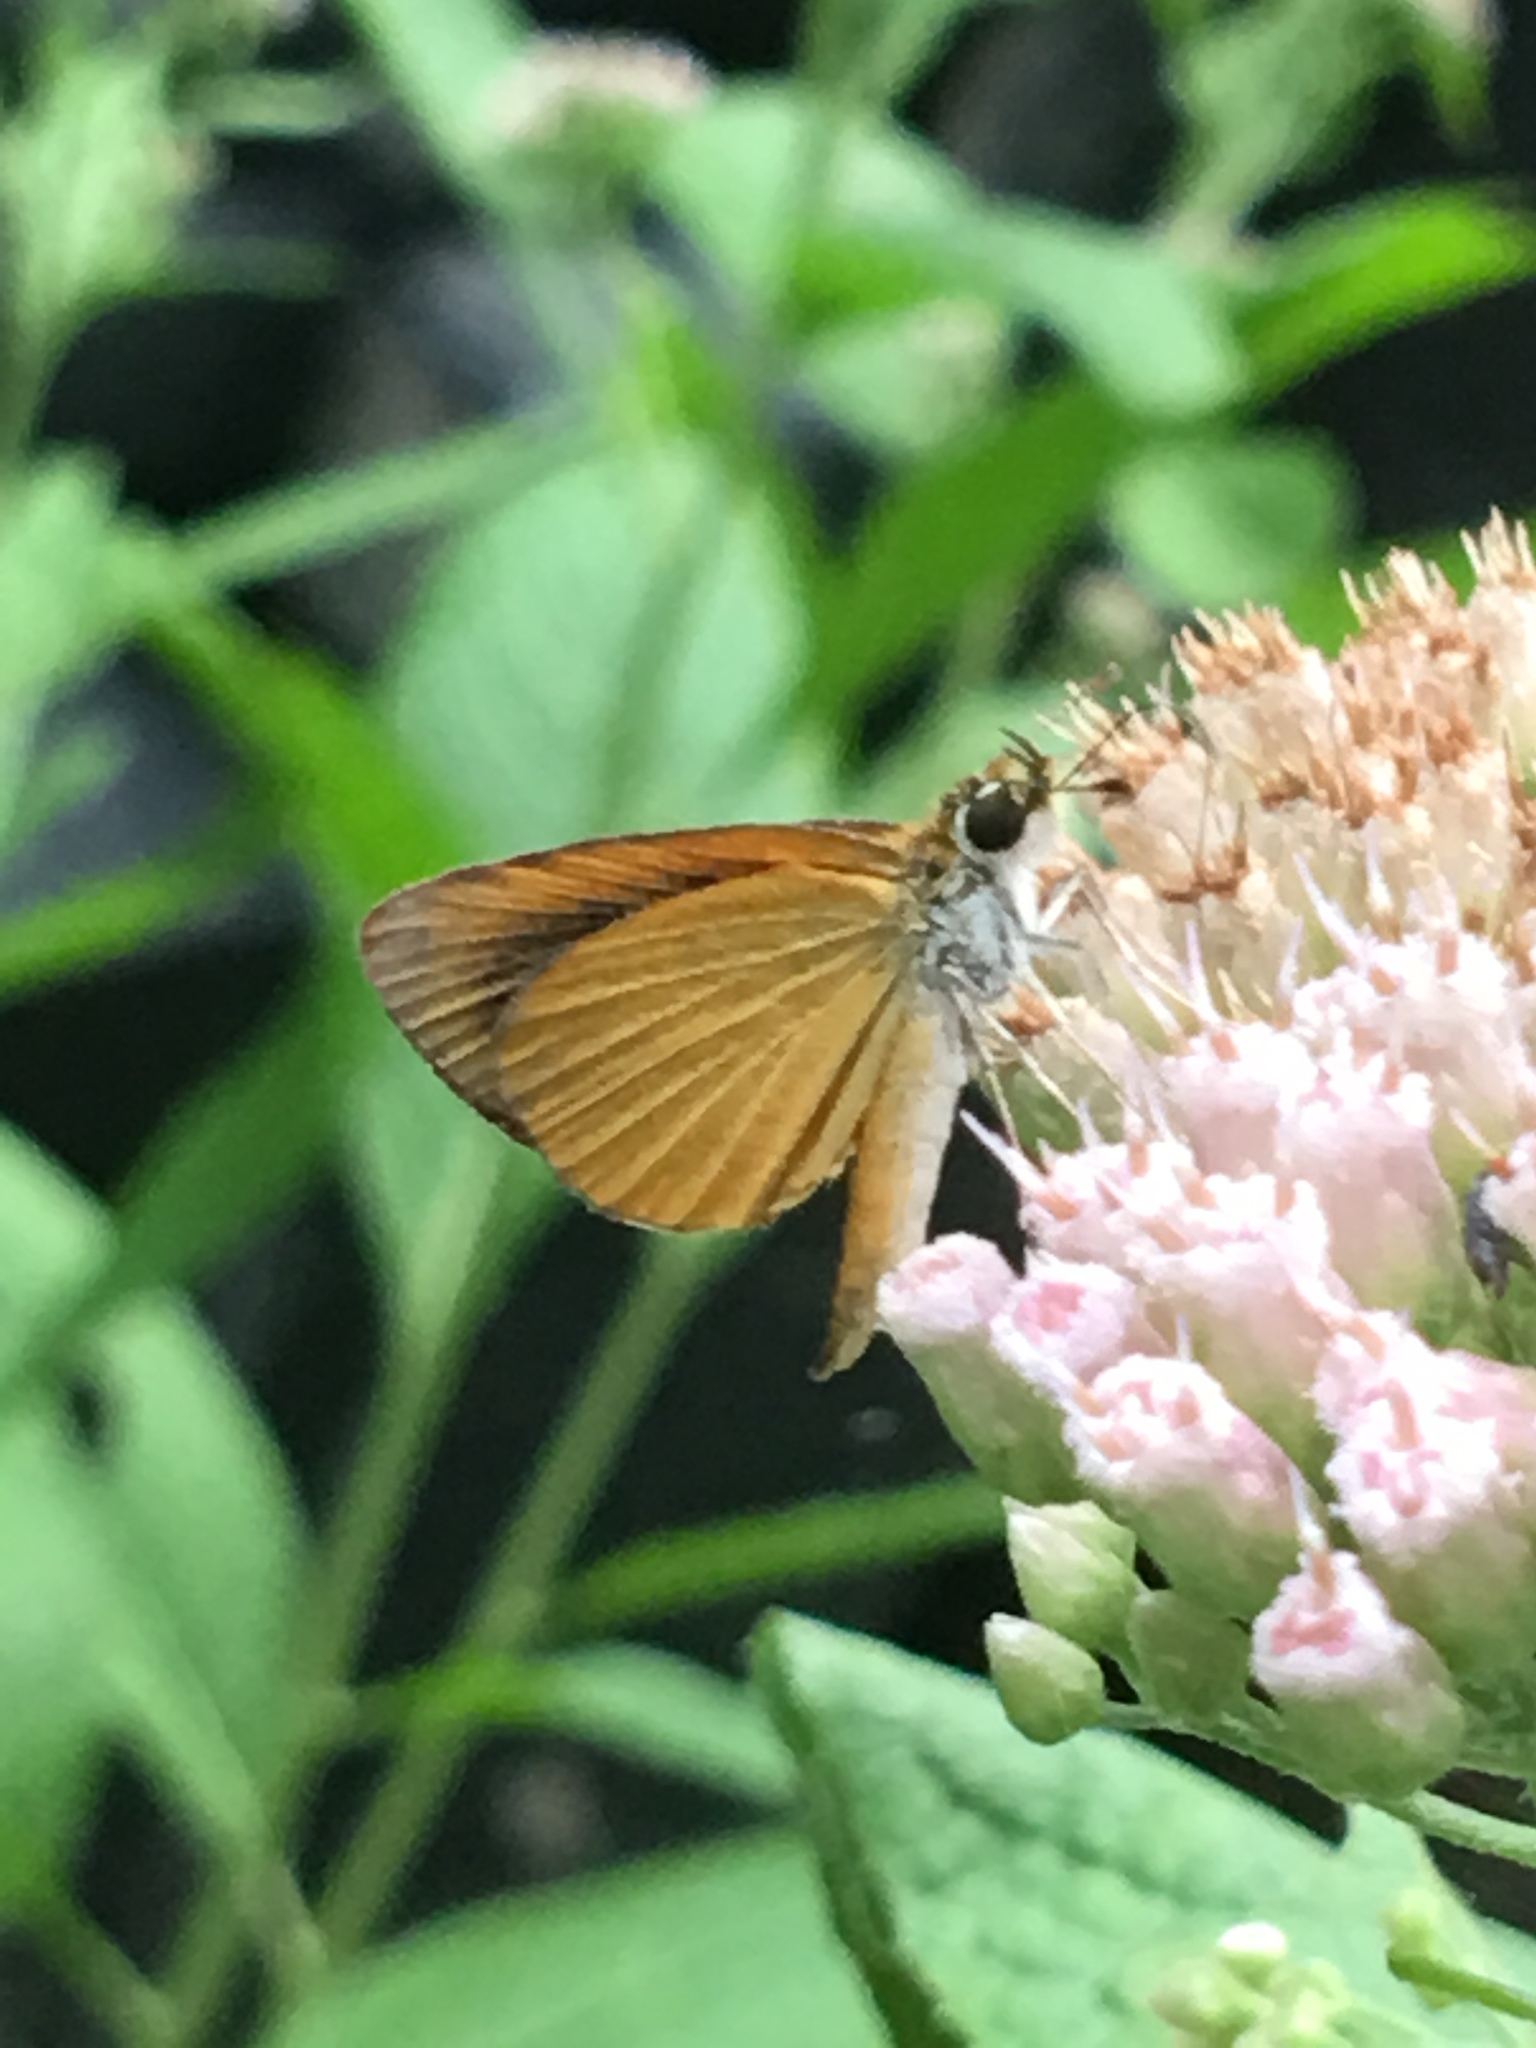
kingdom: Animalia
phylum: Arthropoda
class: Insecta
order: Lepidoptera
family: Hesperiidae
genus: Ancyloxypha
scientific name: Ancyloxypha numitor
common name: Least skipper
